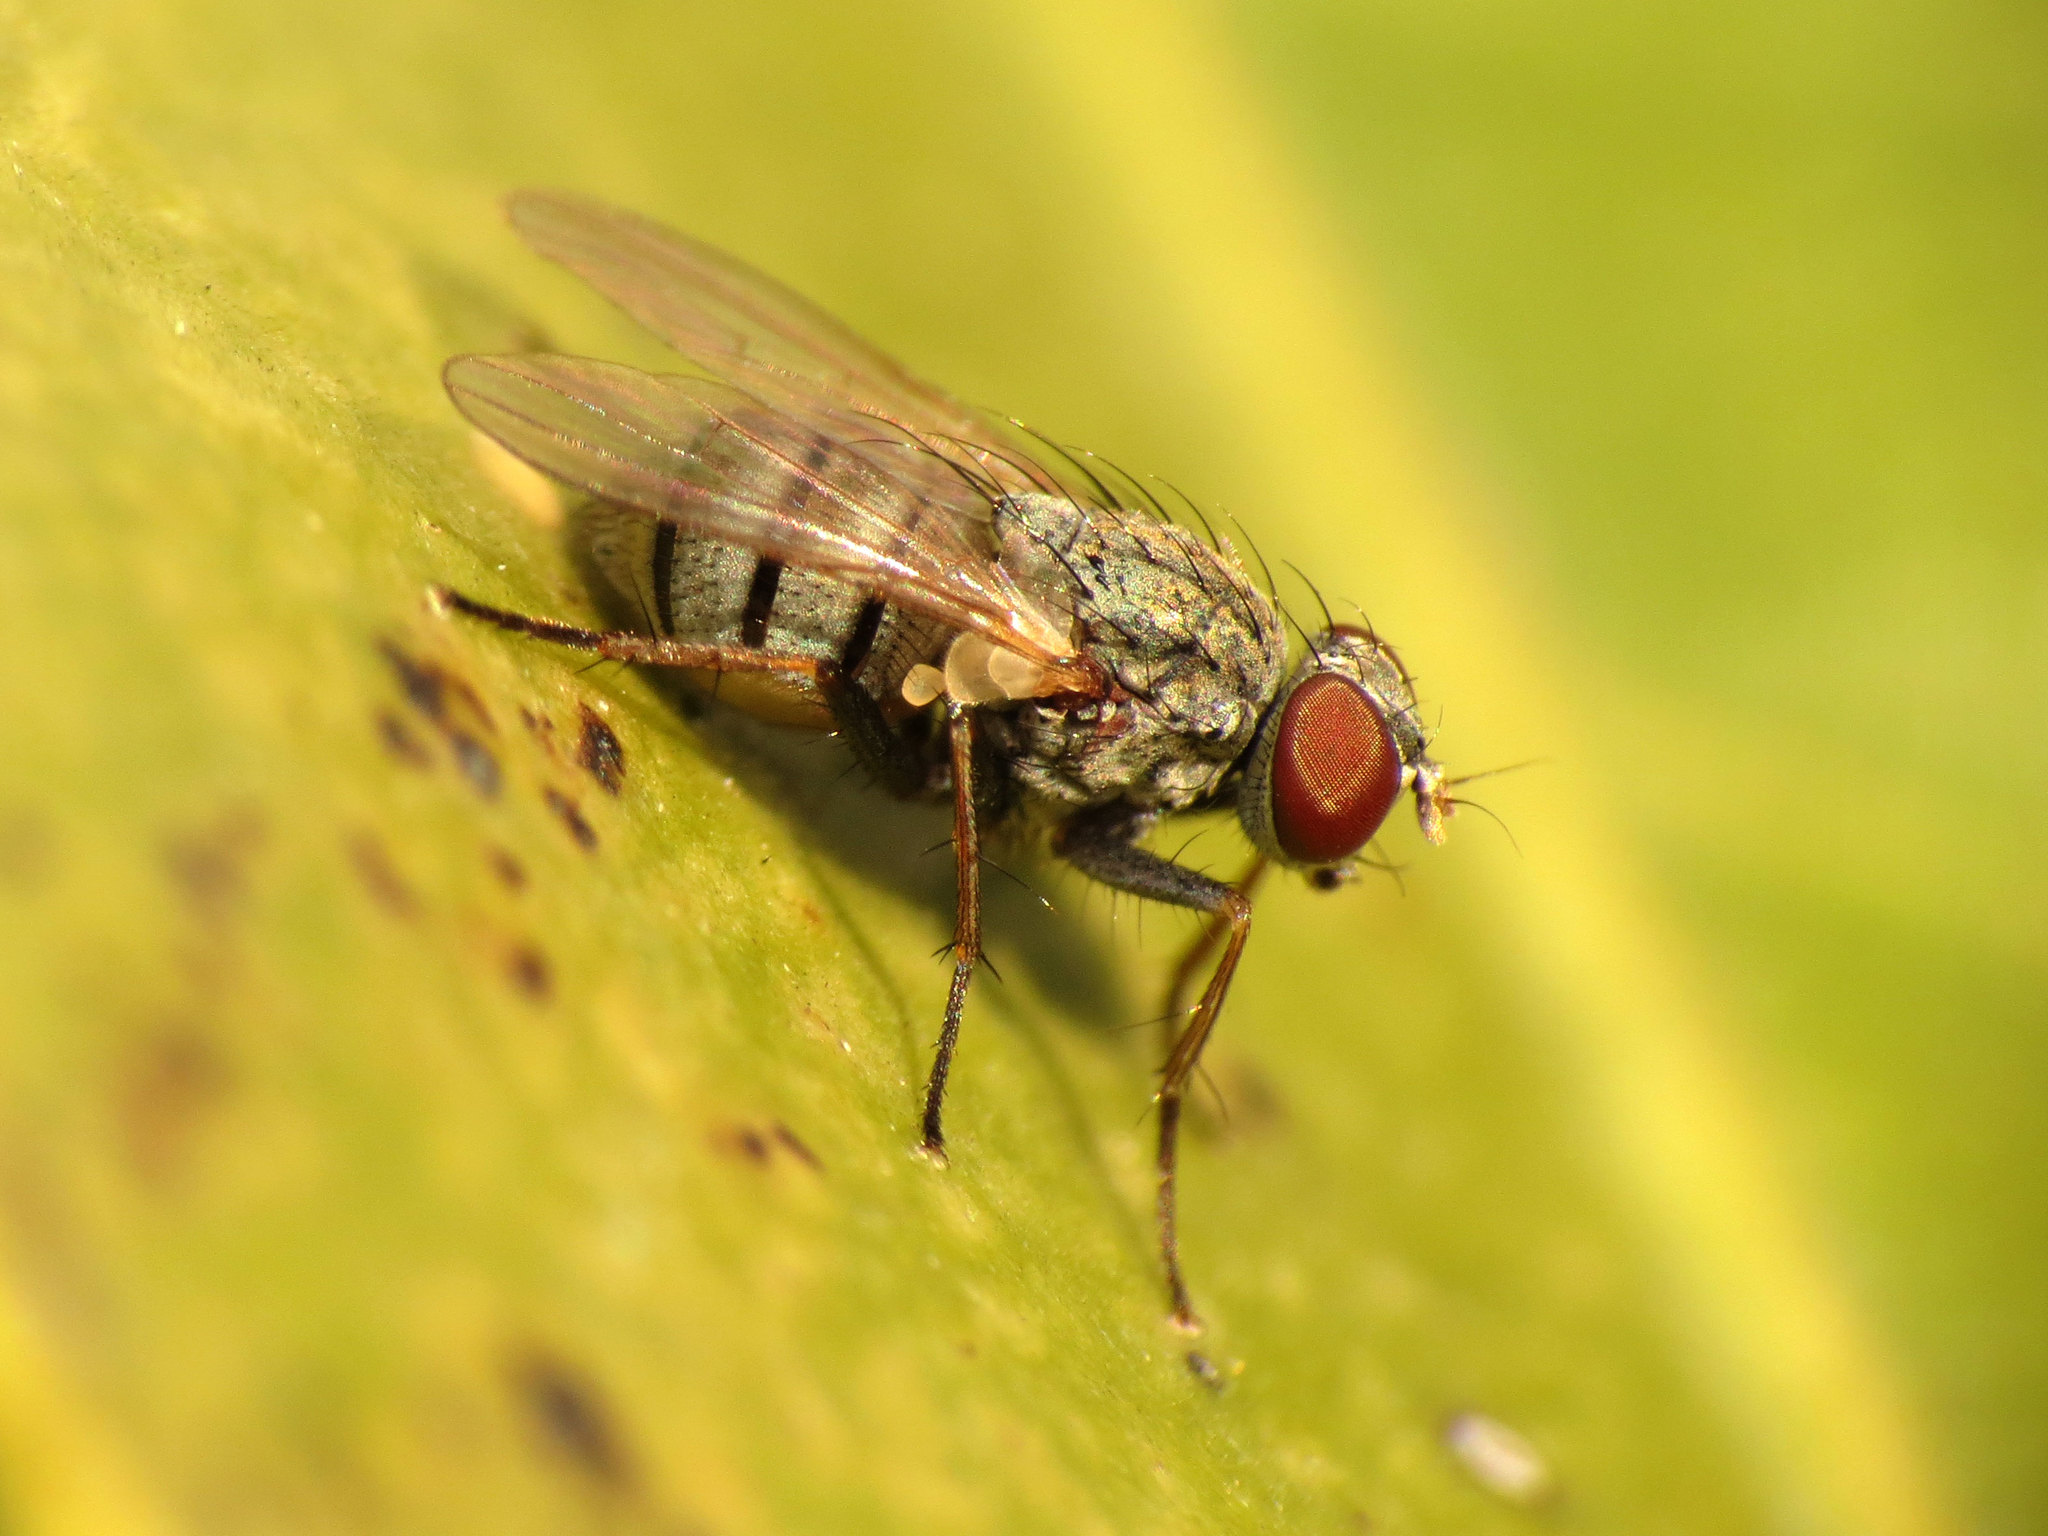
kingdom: Animalia
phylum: Arthropoda
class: Insecta
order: Diptera
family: Muscidae
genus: Coenosia
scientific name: Coenosia attenuata
